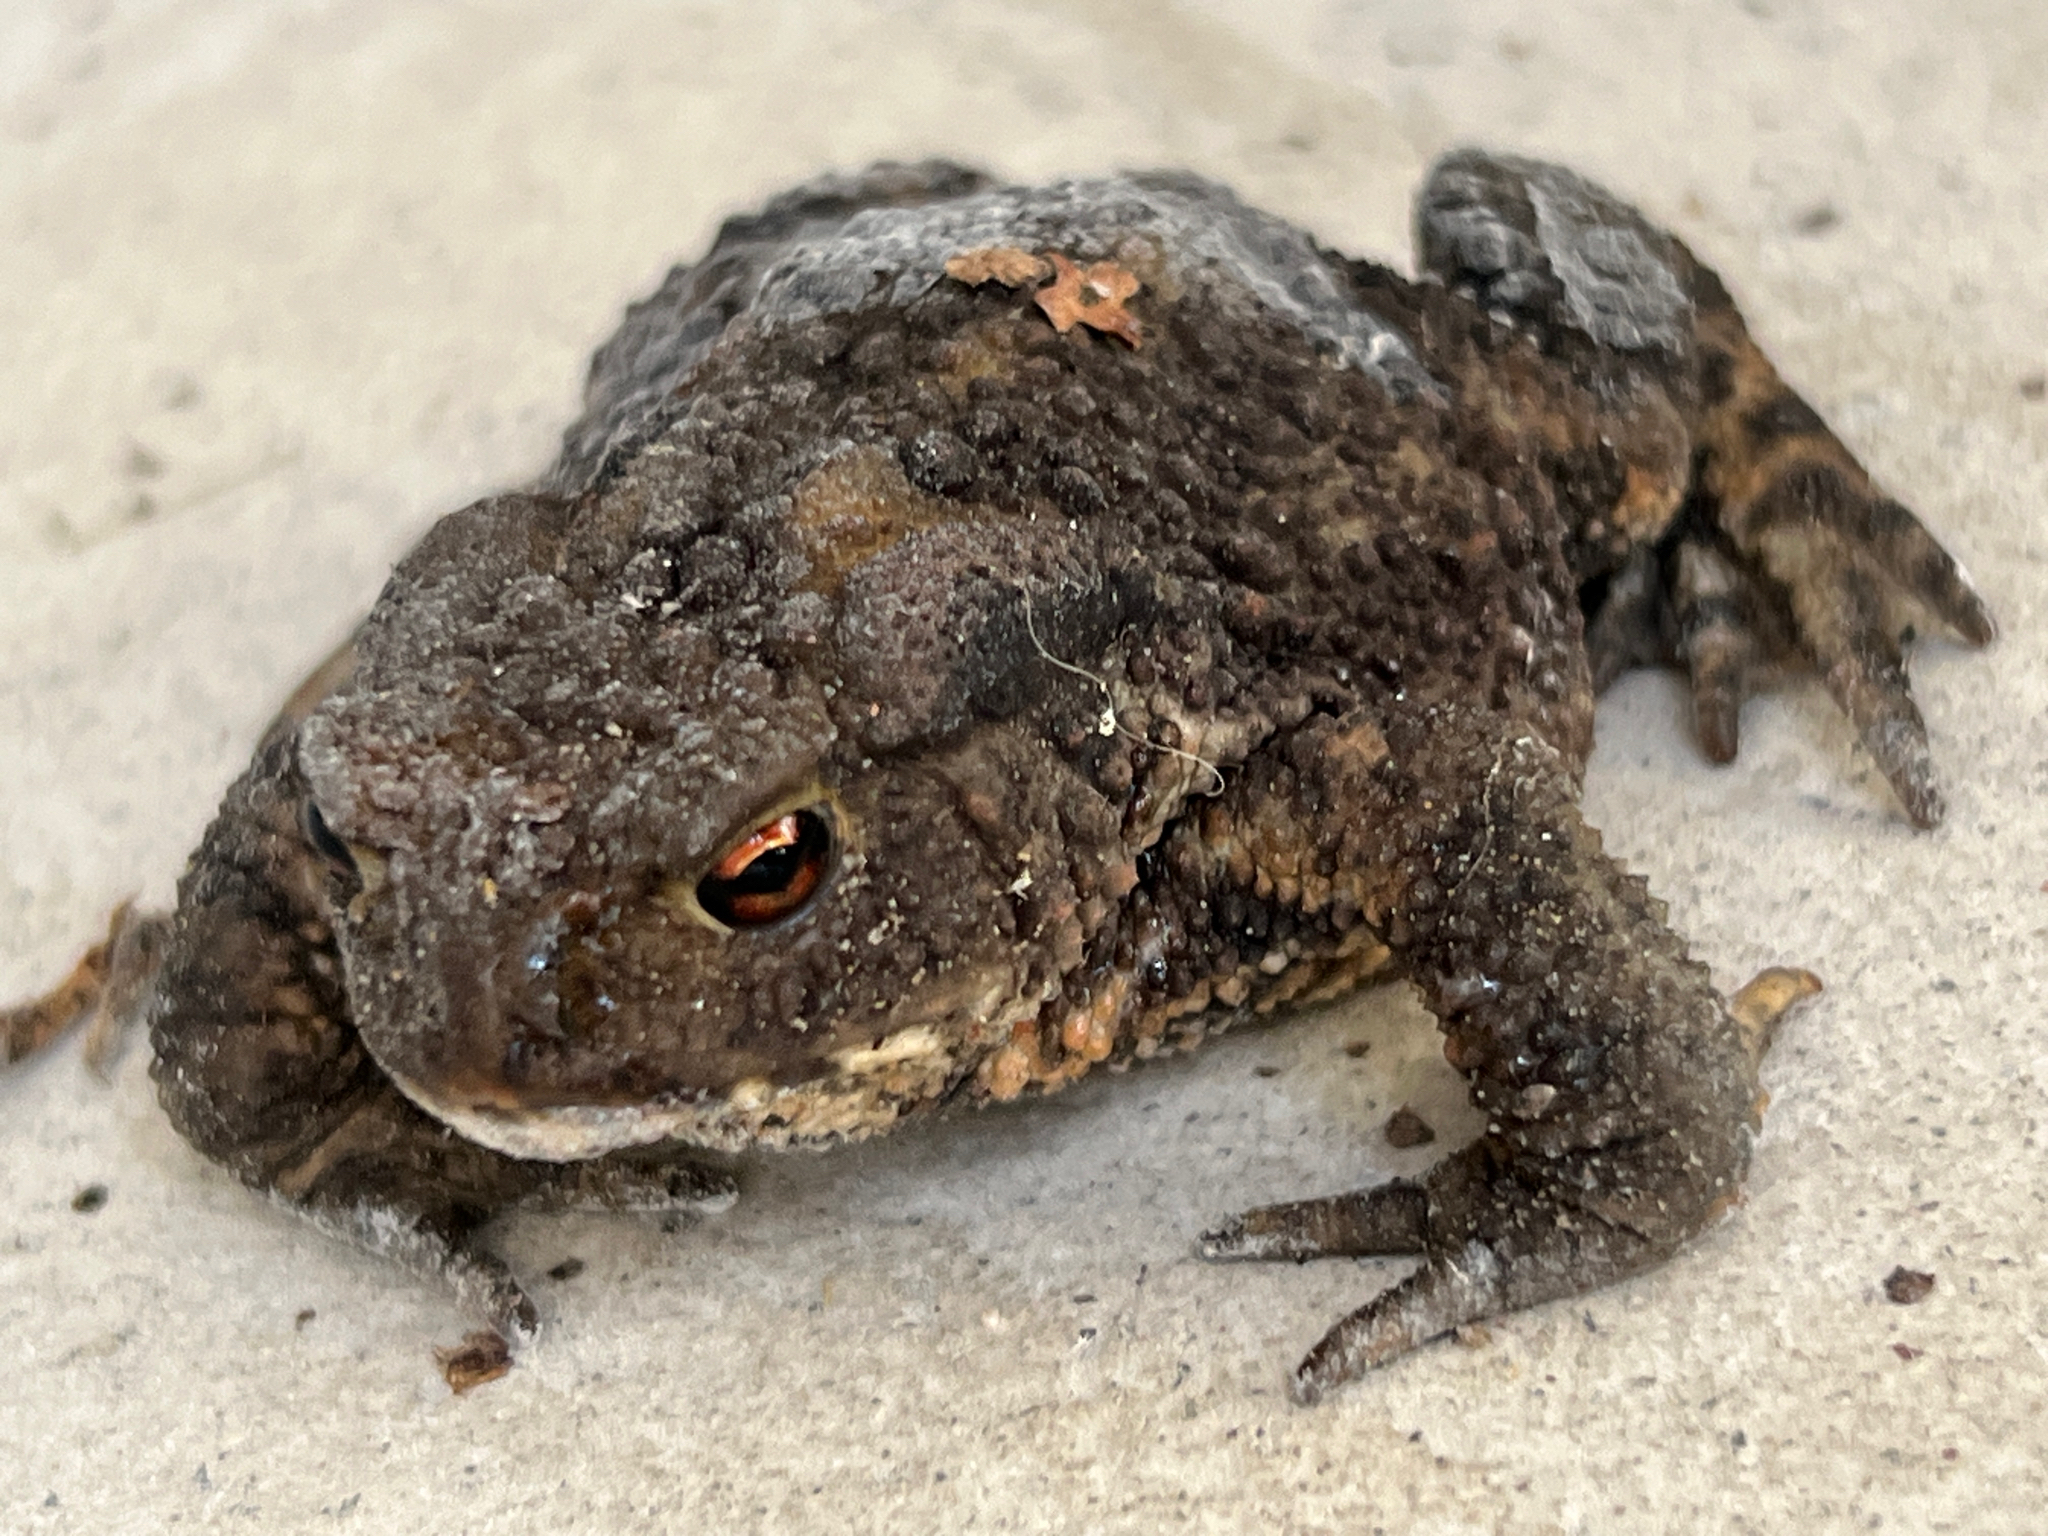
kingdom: Animalia
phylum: Chordata
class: Amphibia
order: Anura
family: Bufonidae
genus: Bufo
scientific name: Bufo bufo
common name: Common toad
